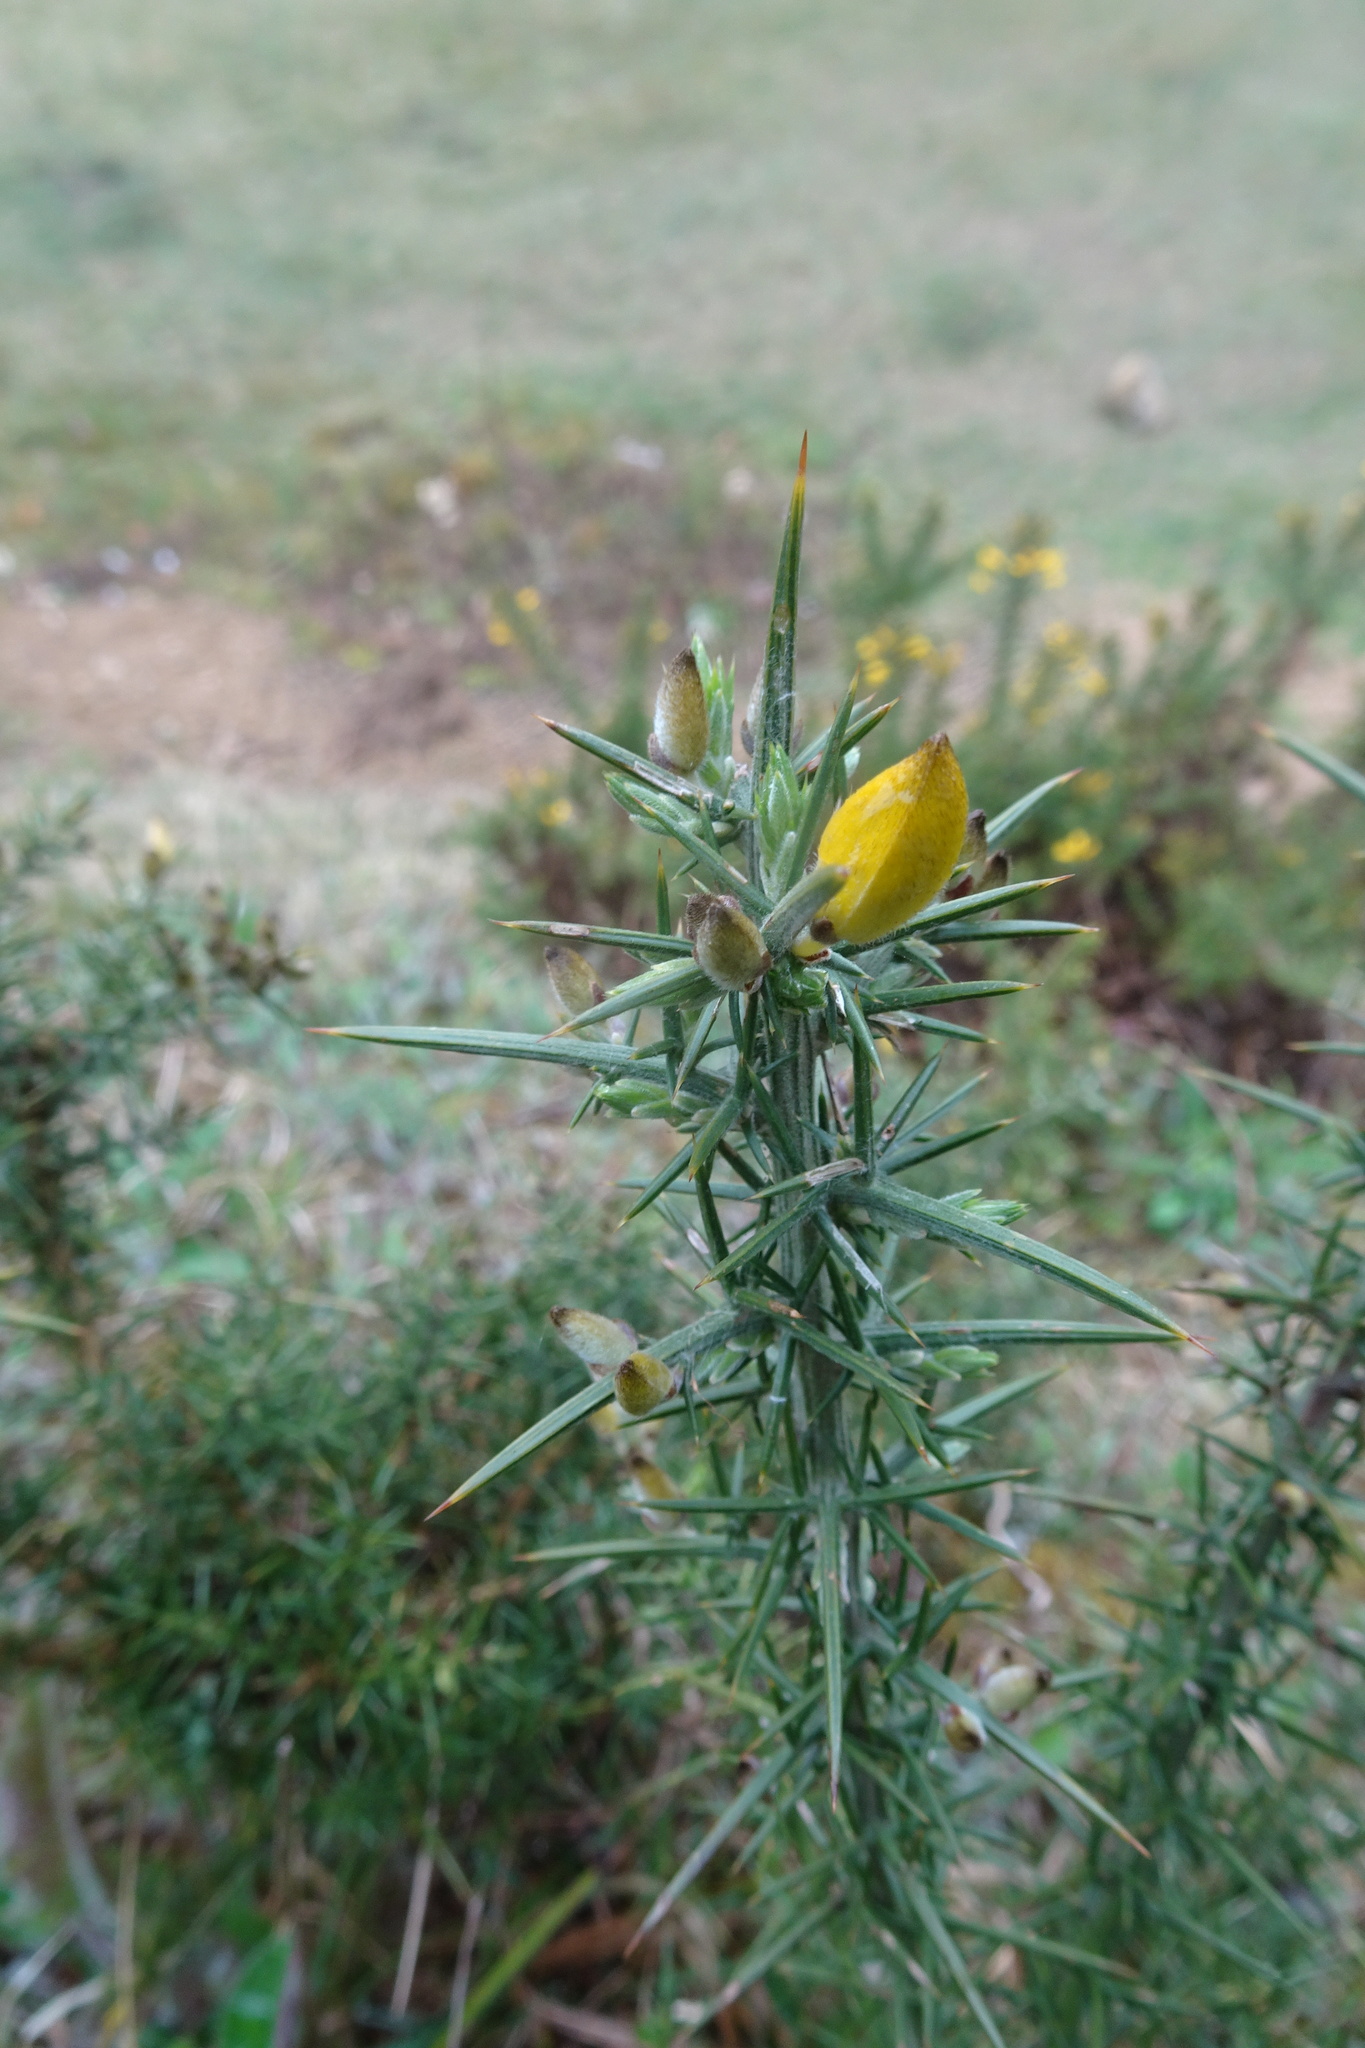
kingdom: Plantae
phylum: Tracheophyta
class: Magnoliopsida
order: Fabales
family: Fabaceae
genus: Ulex
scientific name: Ulex europaeus
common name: Common gorse
